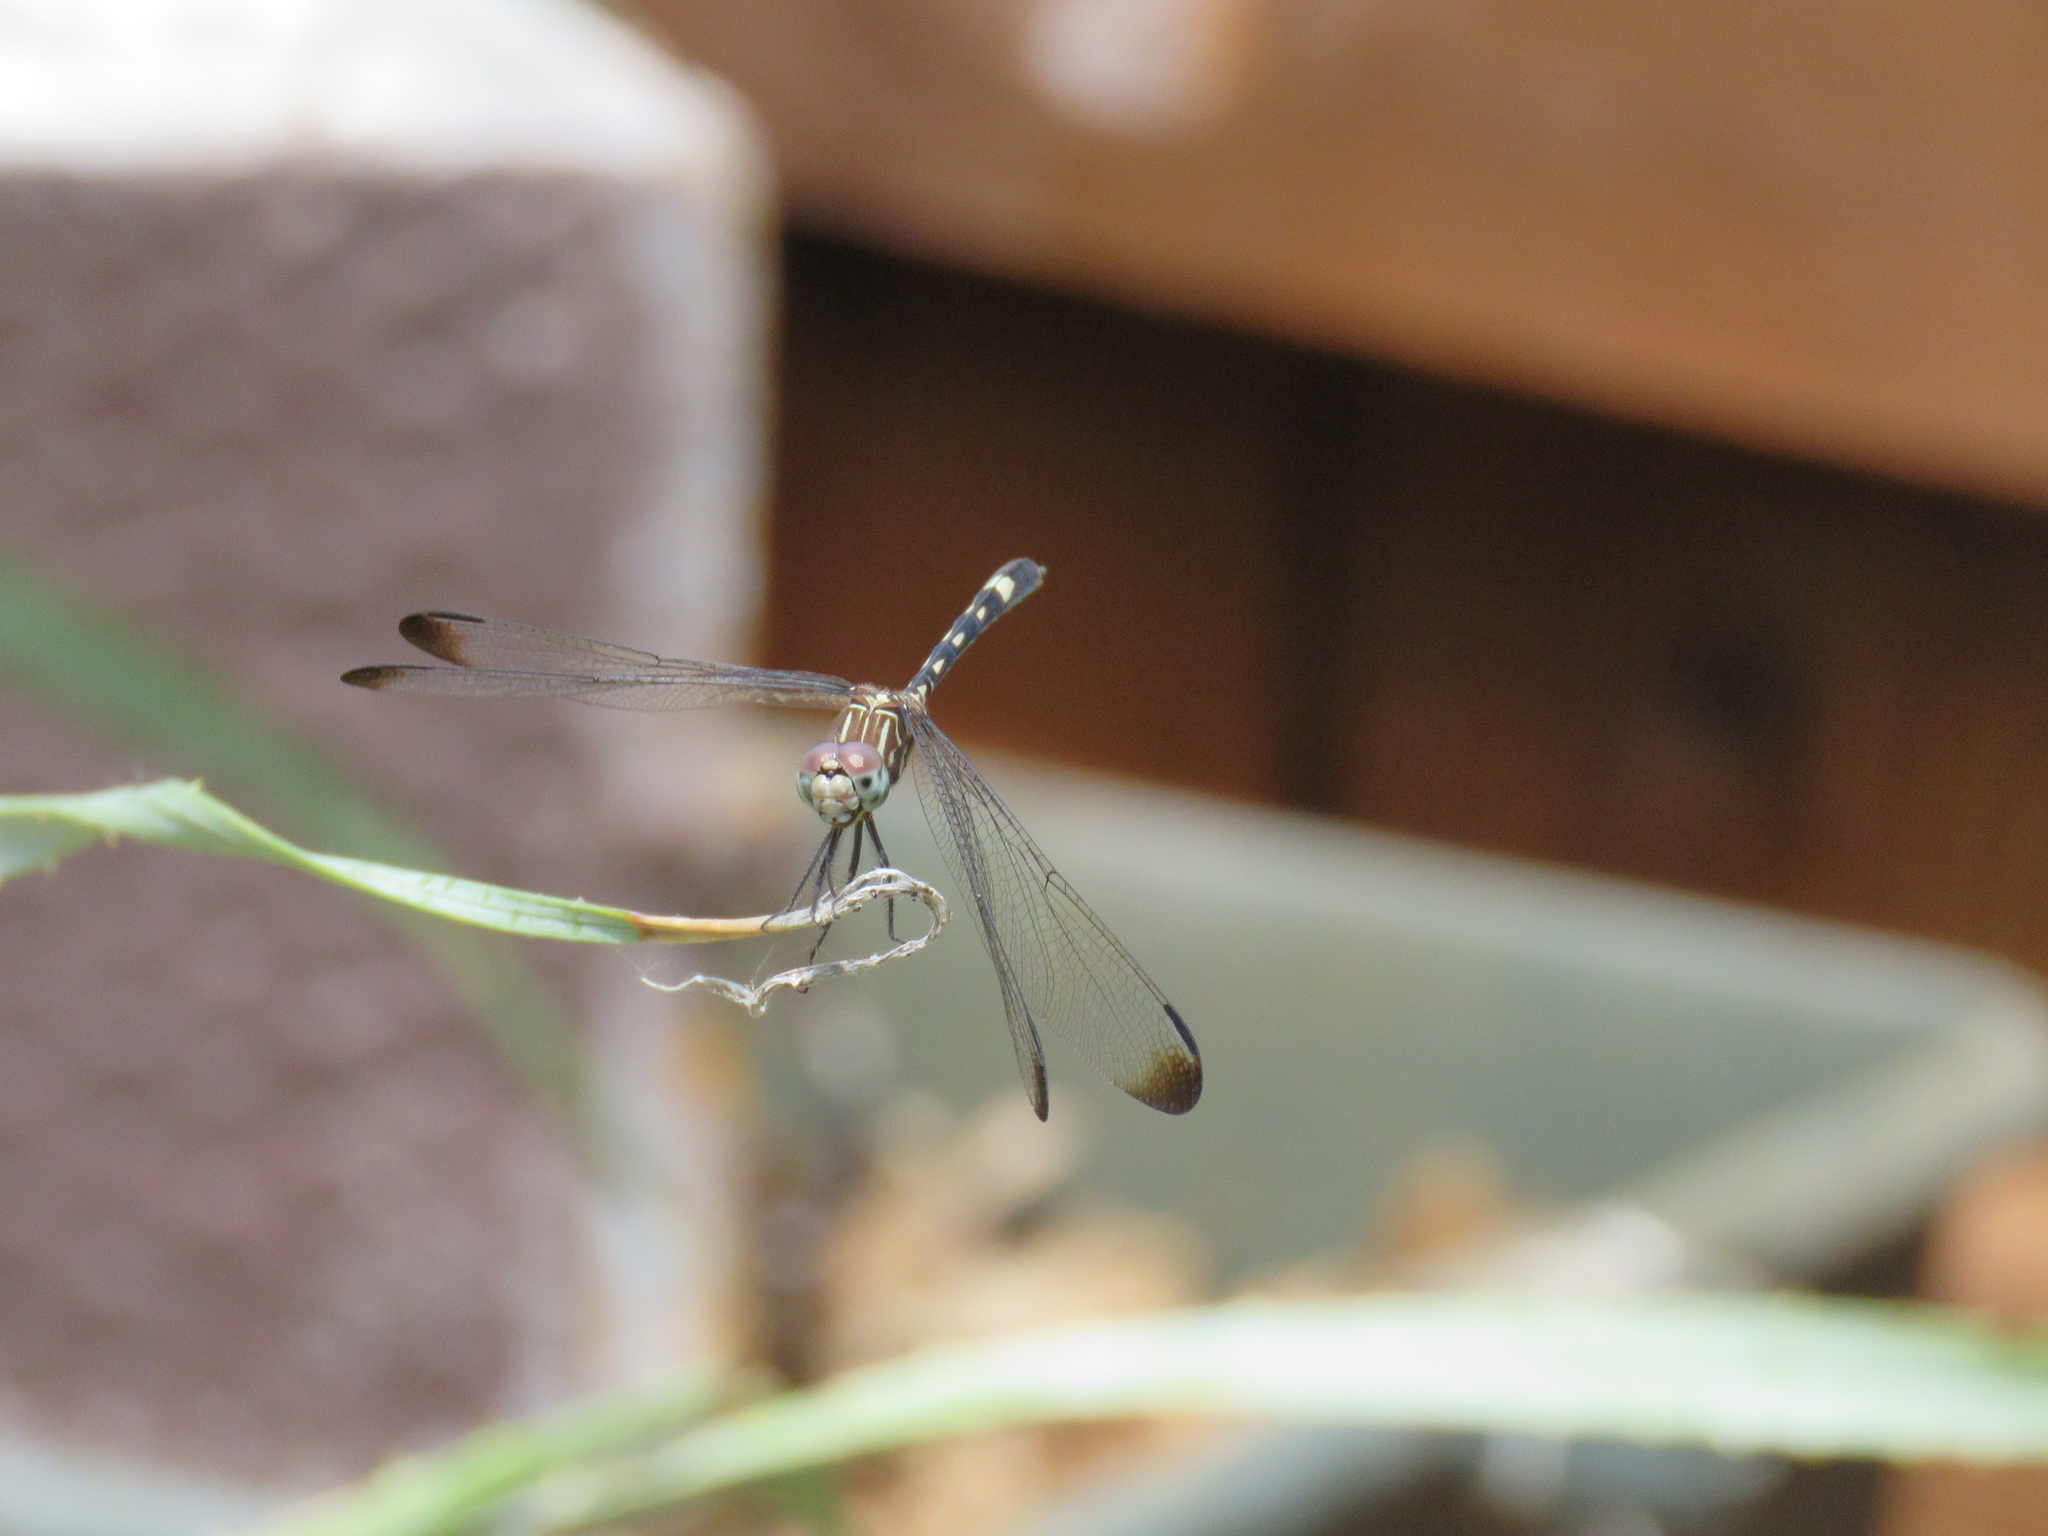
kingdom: Animalia
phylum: Arthropoda
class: Insecta
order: Odonata
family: Libellulidae
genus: Dythemis
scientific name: Dythemis velox
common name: Swift setwing
